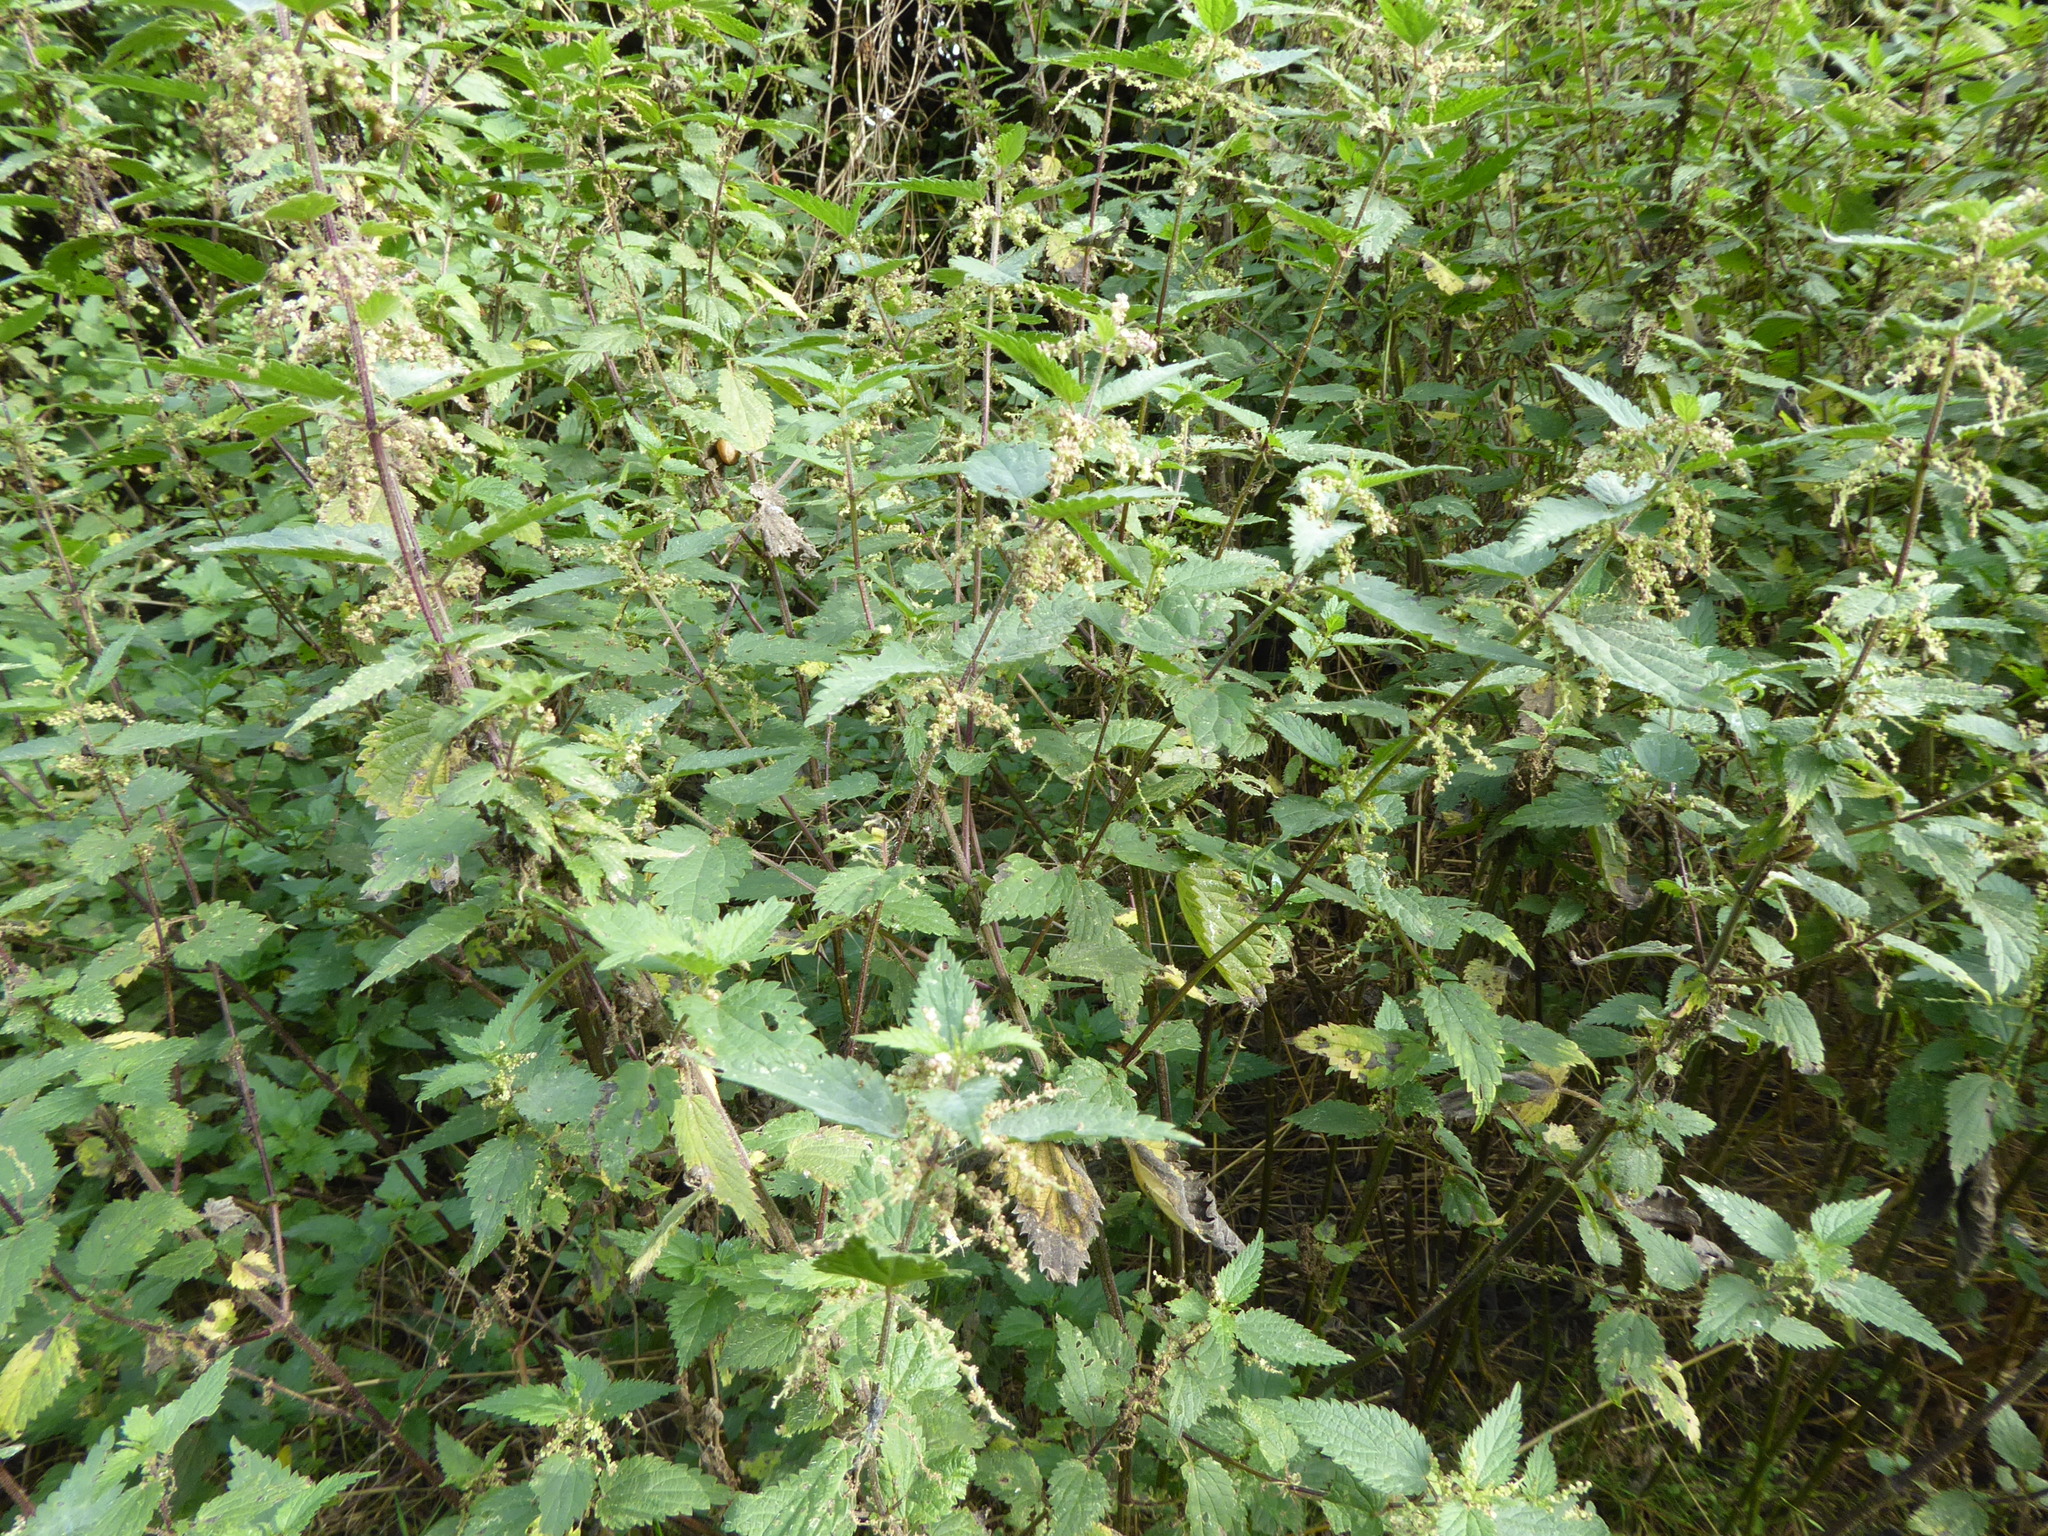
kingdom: Plantae
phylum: Tracheophyta
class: Magnoliopsida
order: Rosales
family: Urticaceae
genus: Urtica
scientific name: Urtica dioica
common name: Common nettle
